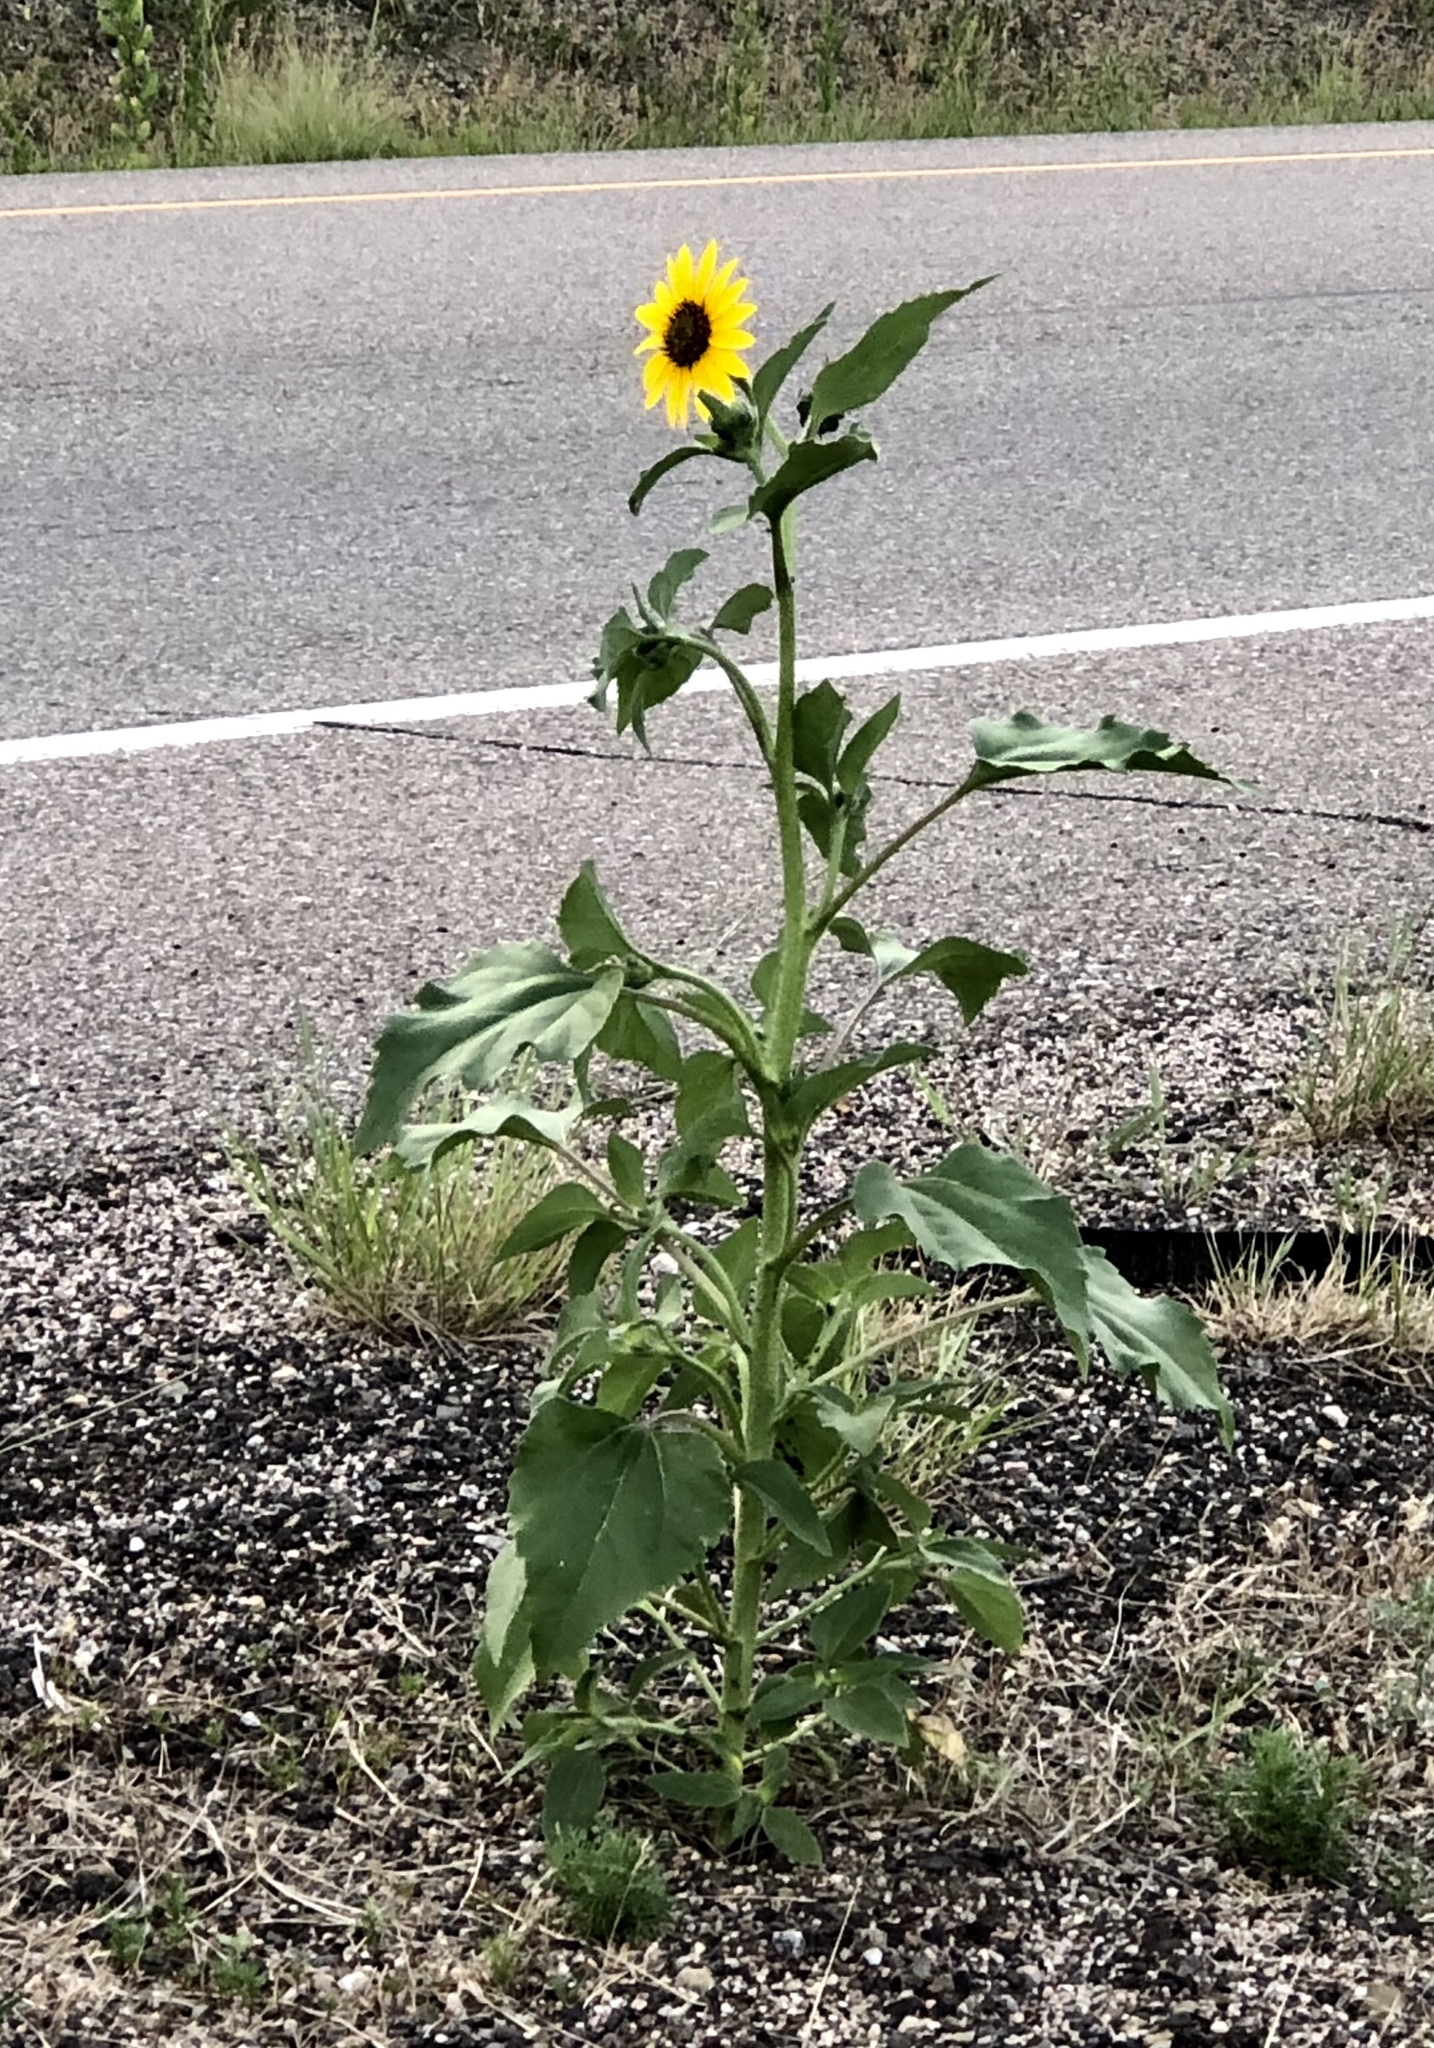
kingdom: Plantae
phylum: Tracheophyta
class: Magnoliopsida
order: Asterales
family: Asteraceae
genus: Helianthus
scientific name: Helianthus annuus
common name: Sunflower
